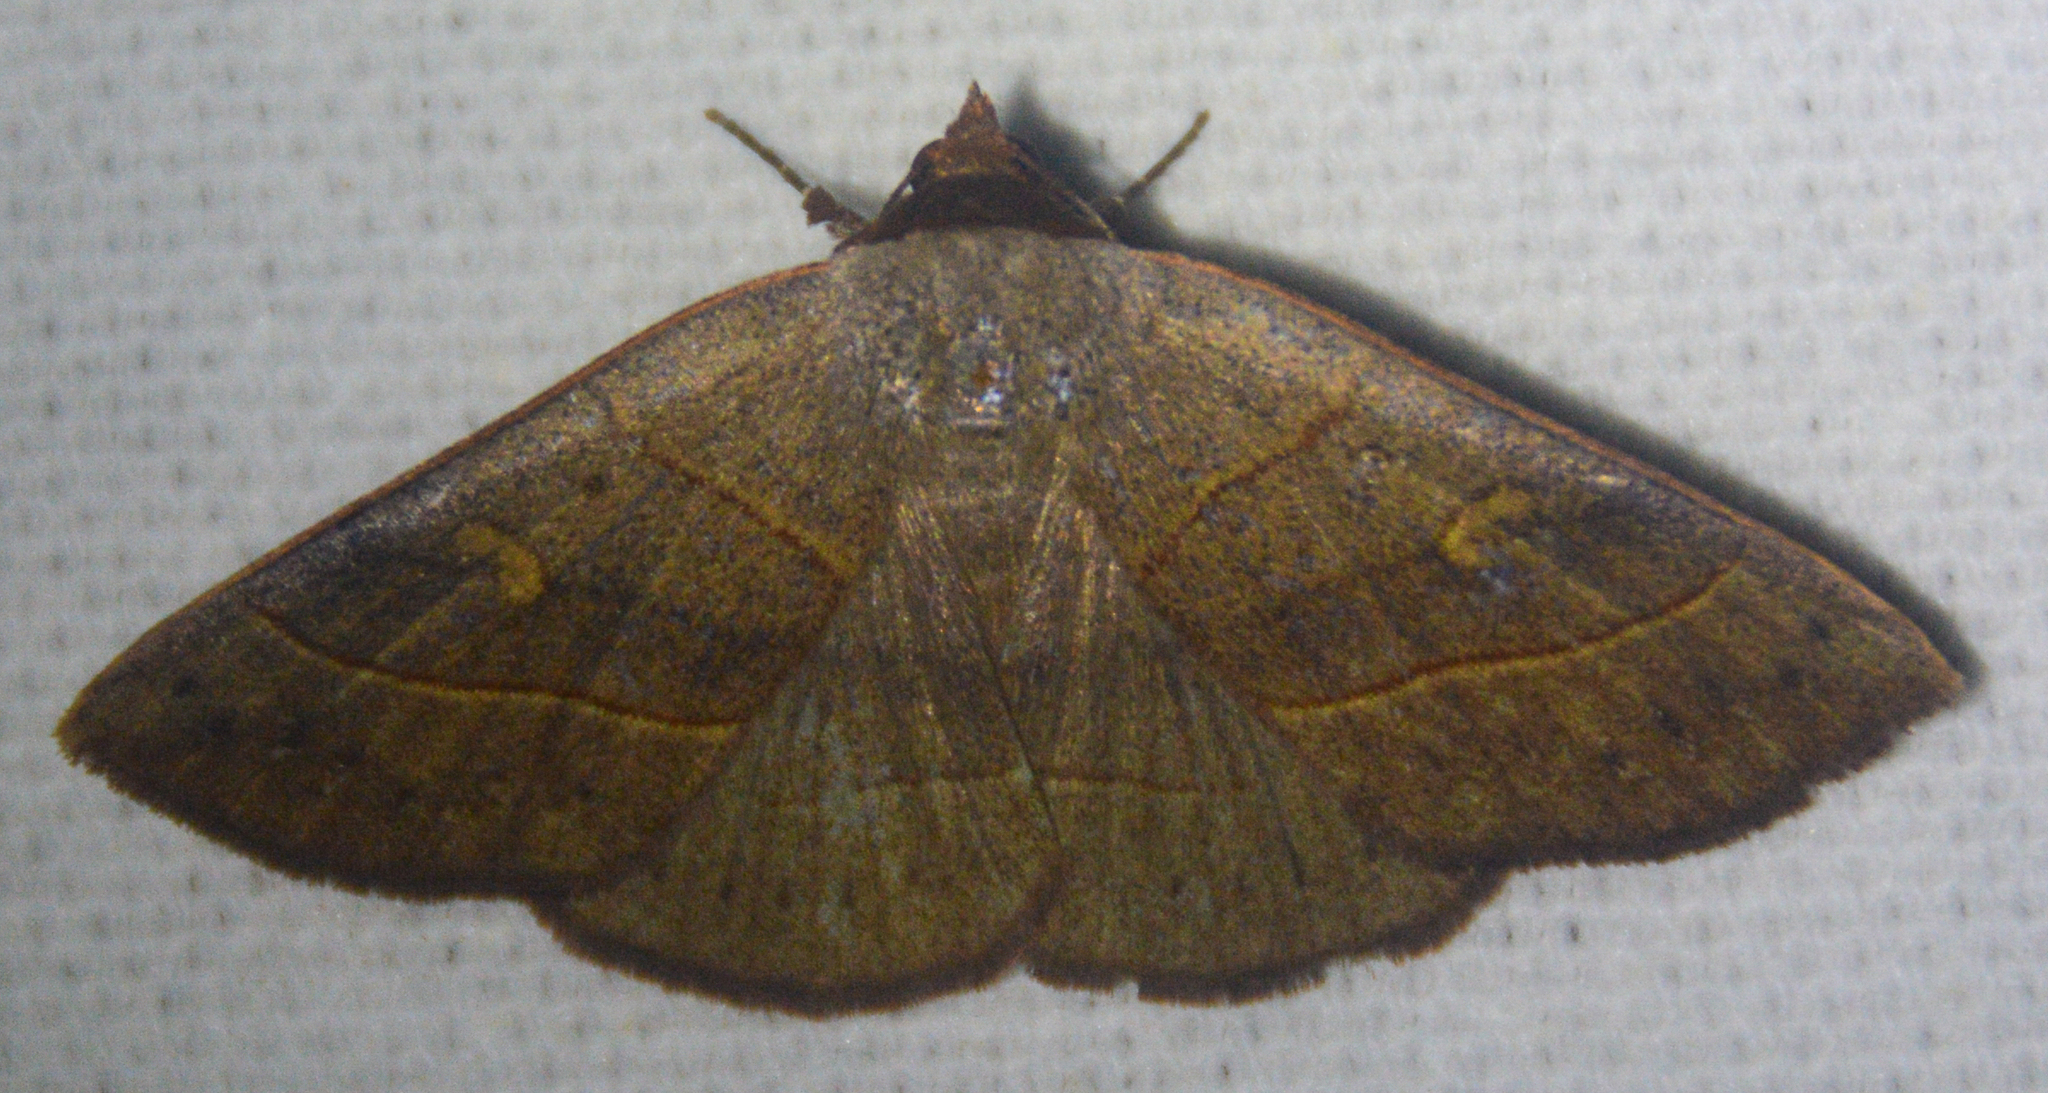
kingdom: Animalia
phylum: Arthropoda
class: Insecta
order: Lepidoptera
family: Erebidae
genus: Panopoda
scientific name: Panopoda rufimargo
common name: Red-lined panopoda moth
